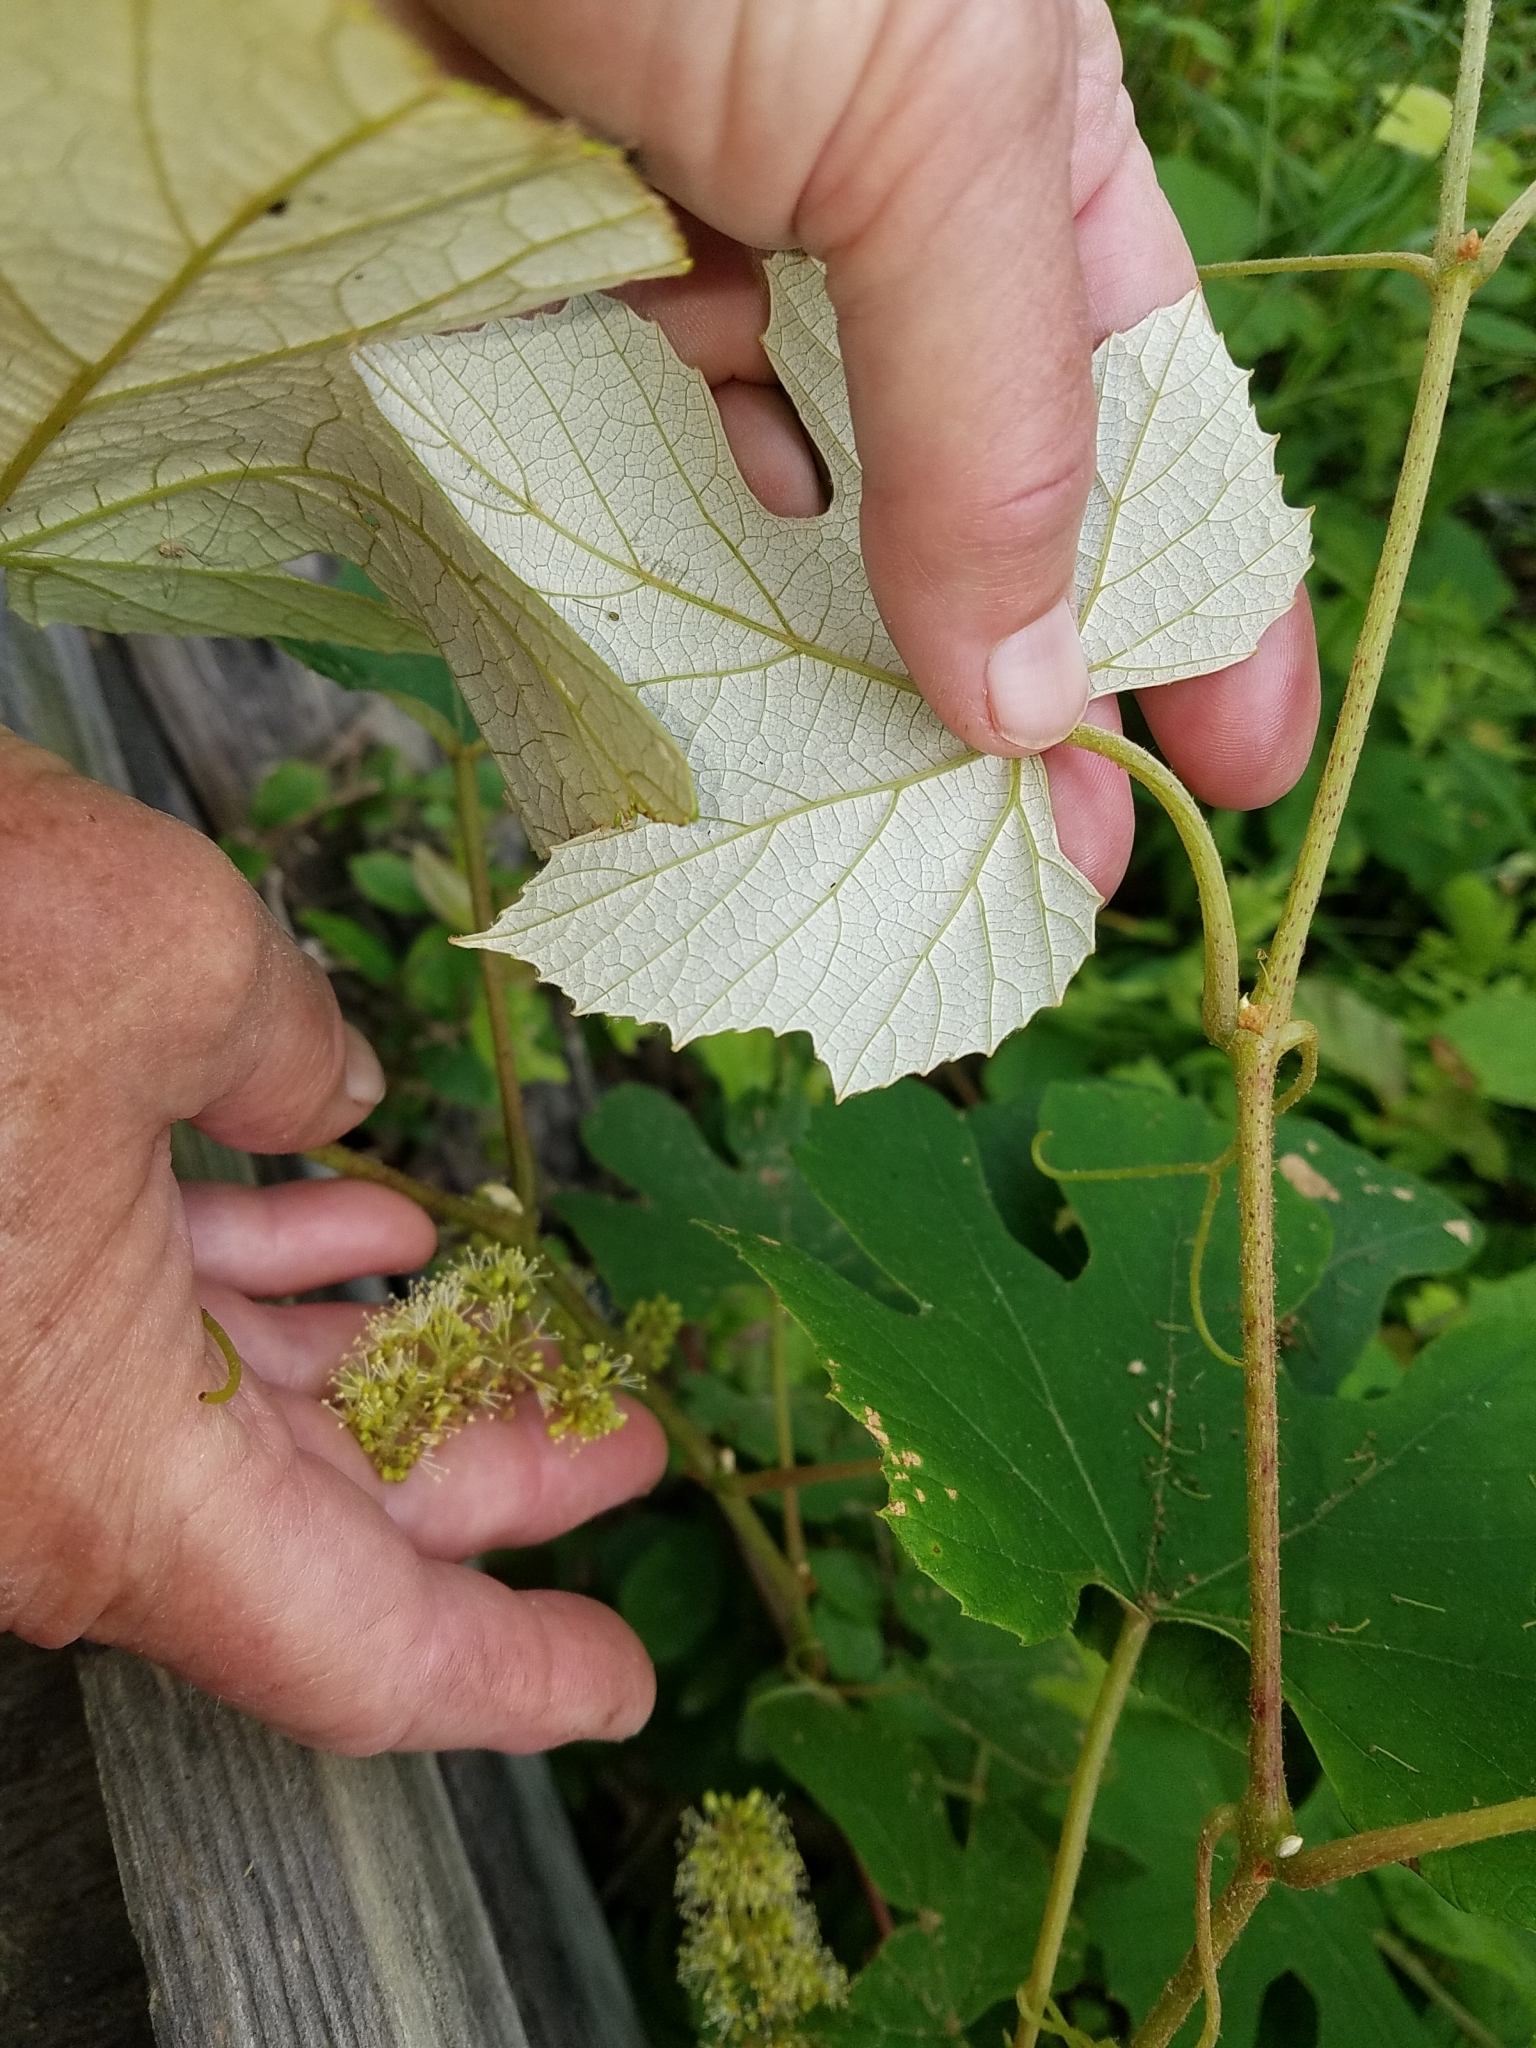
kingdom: Plantae
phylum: Tracheophyta
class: Magnoliopsida
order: Vitales
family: Vitaceae
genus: Vitis
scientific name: Vitis labrusca
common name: Concord grape
